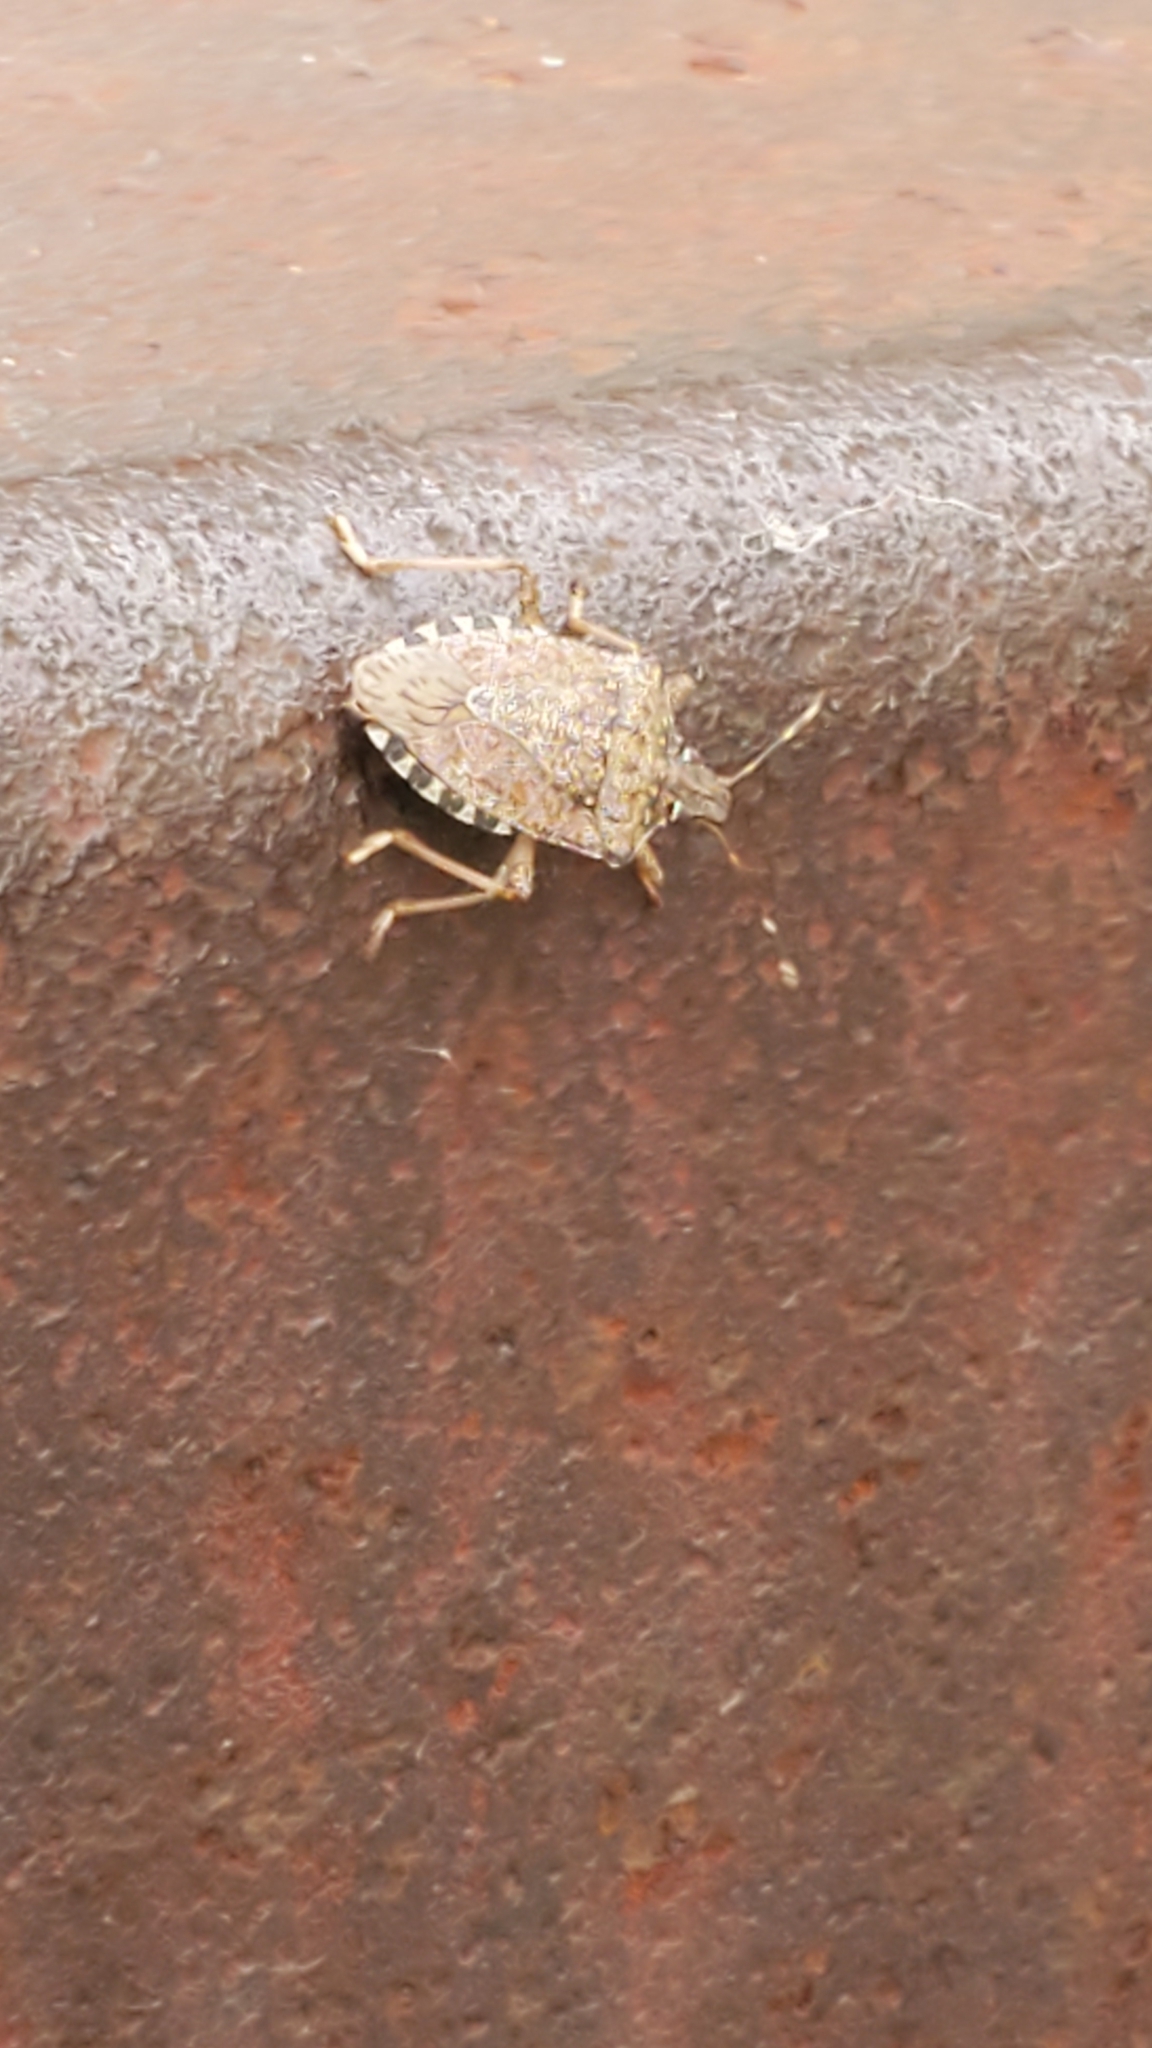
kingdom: Animalia
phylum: Arthropoda
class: Insecta
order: Hemiptera
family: Pentatomidae
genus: Halyomorpha
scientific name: Halyomorpha halys
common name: Brown marmorated stink bug
